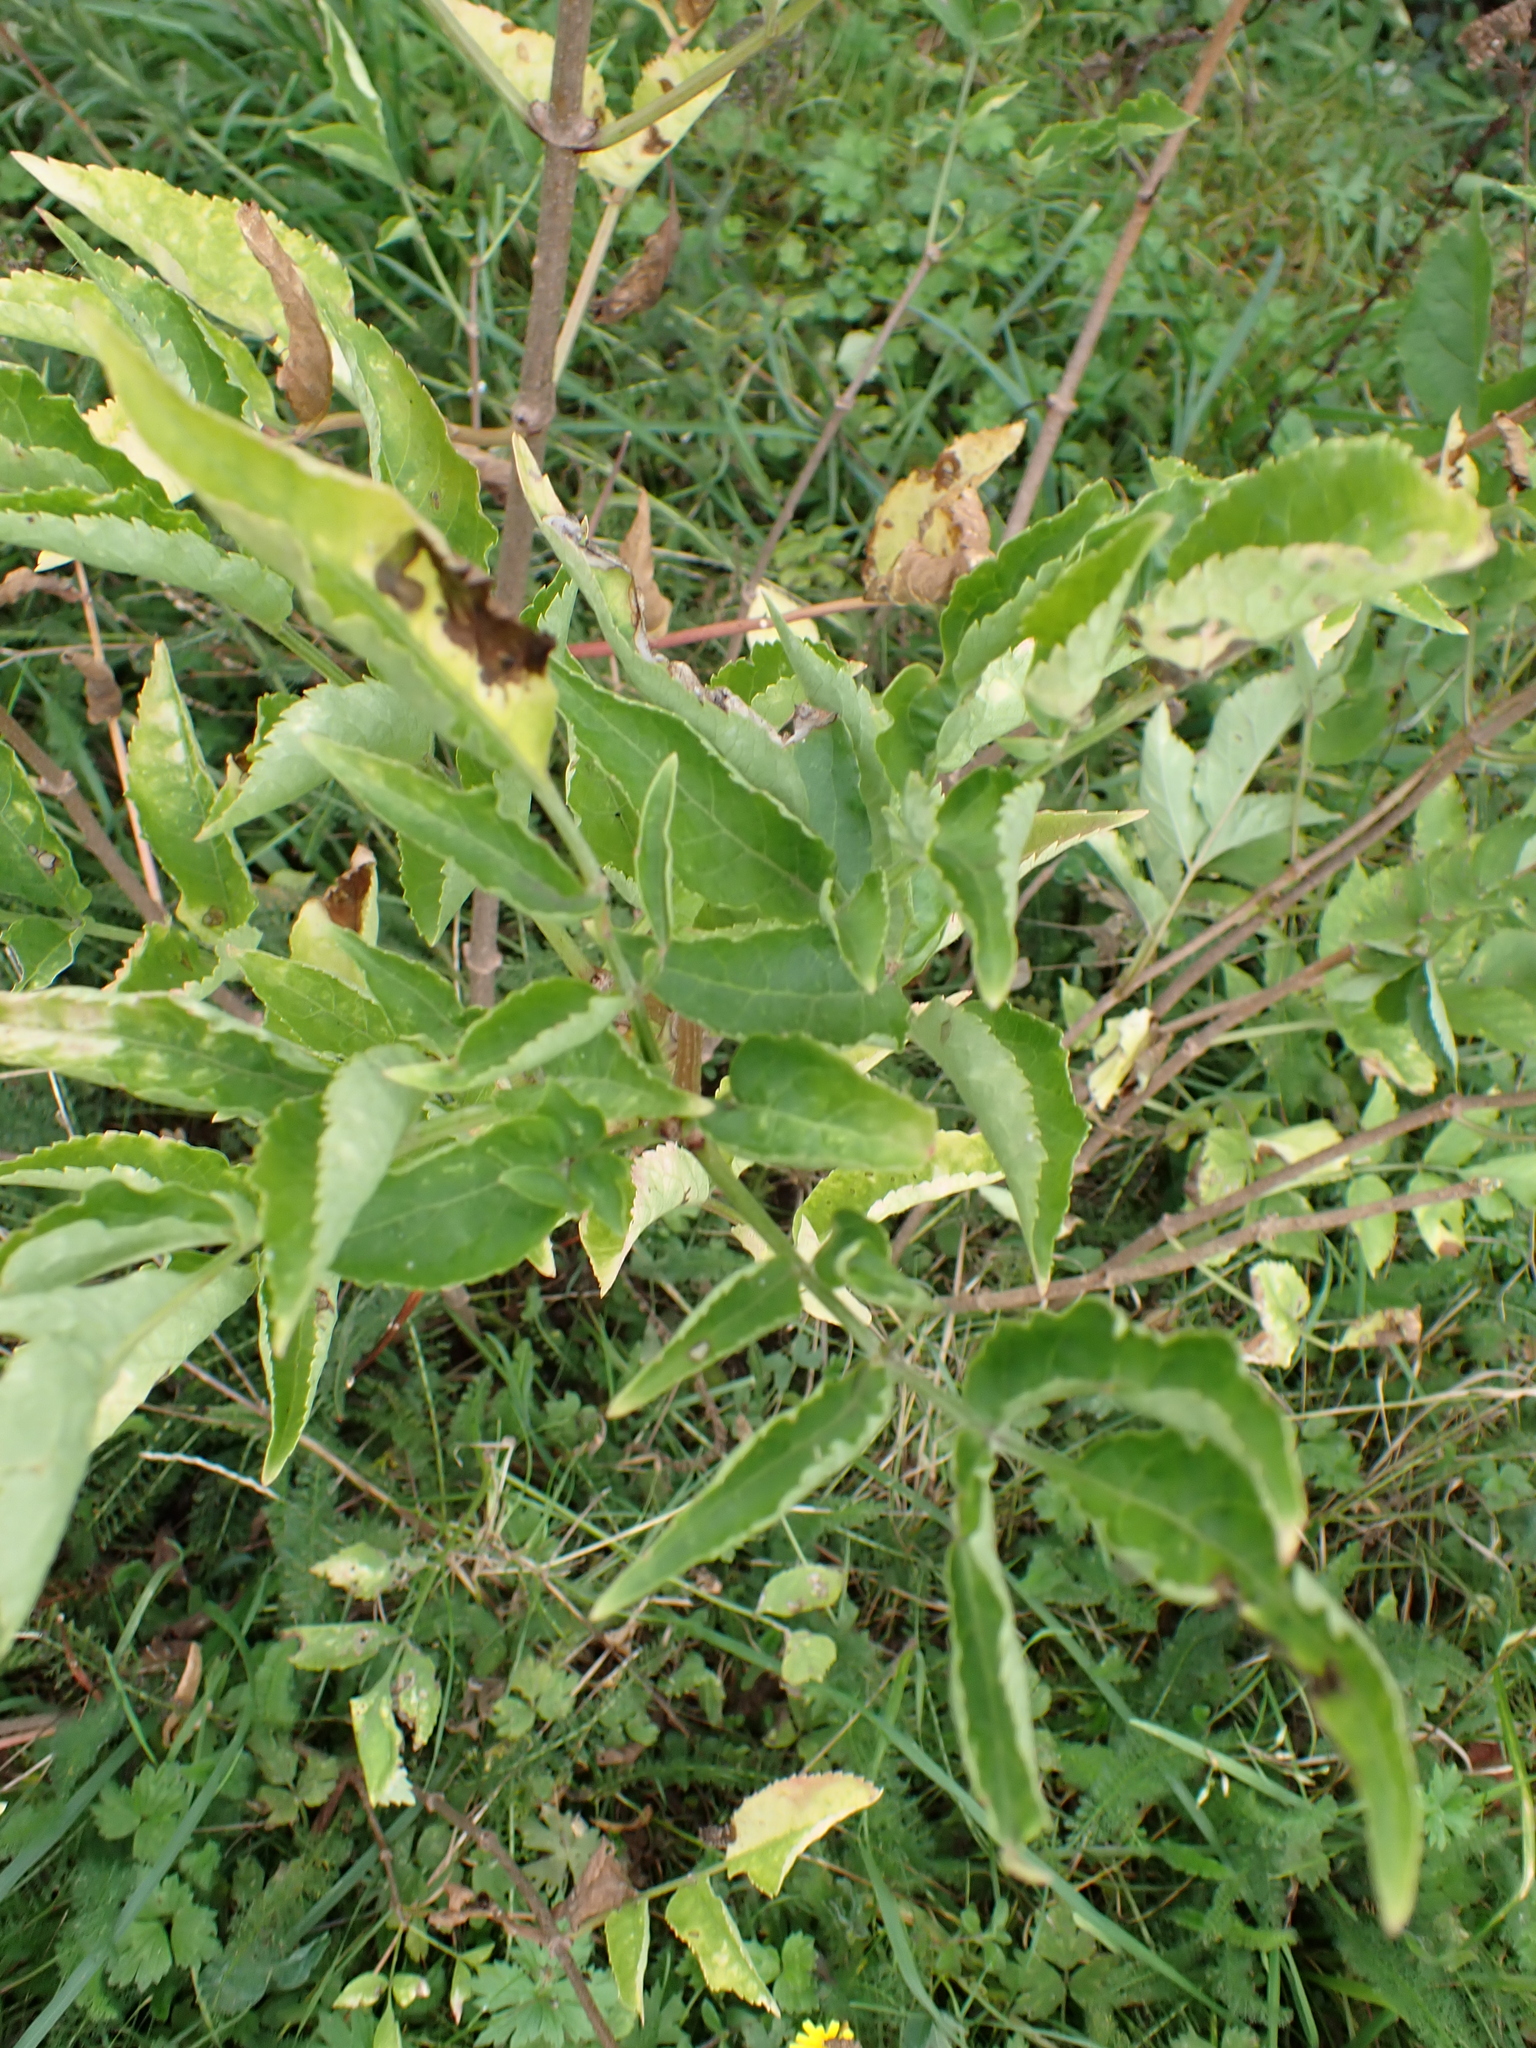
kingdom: Plantae
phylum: Tracheophyta
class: Magnoliopsida
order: Dipsacales
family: Viburnaceae
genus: Sambucus
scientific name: Sambucus nigra
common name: Elder
